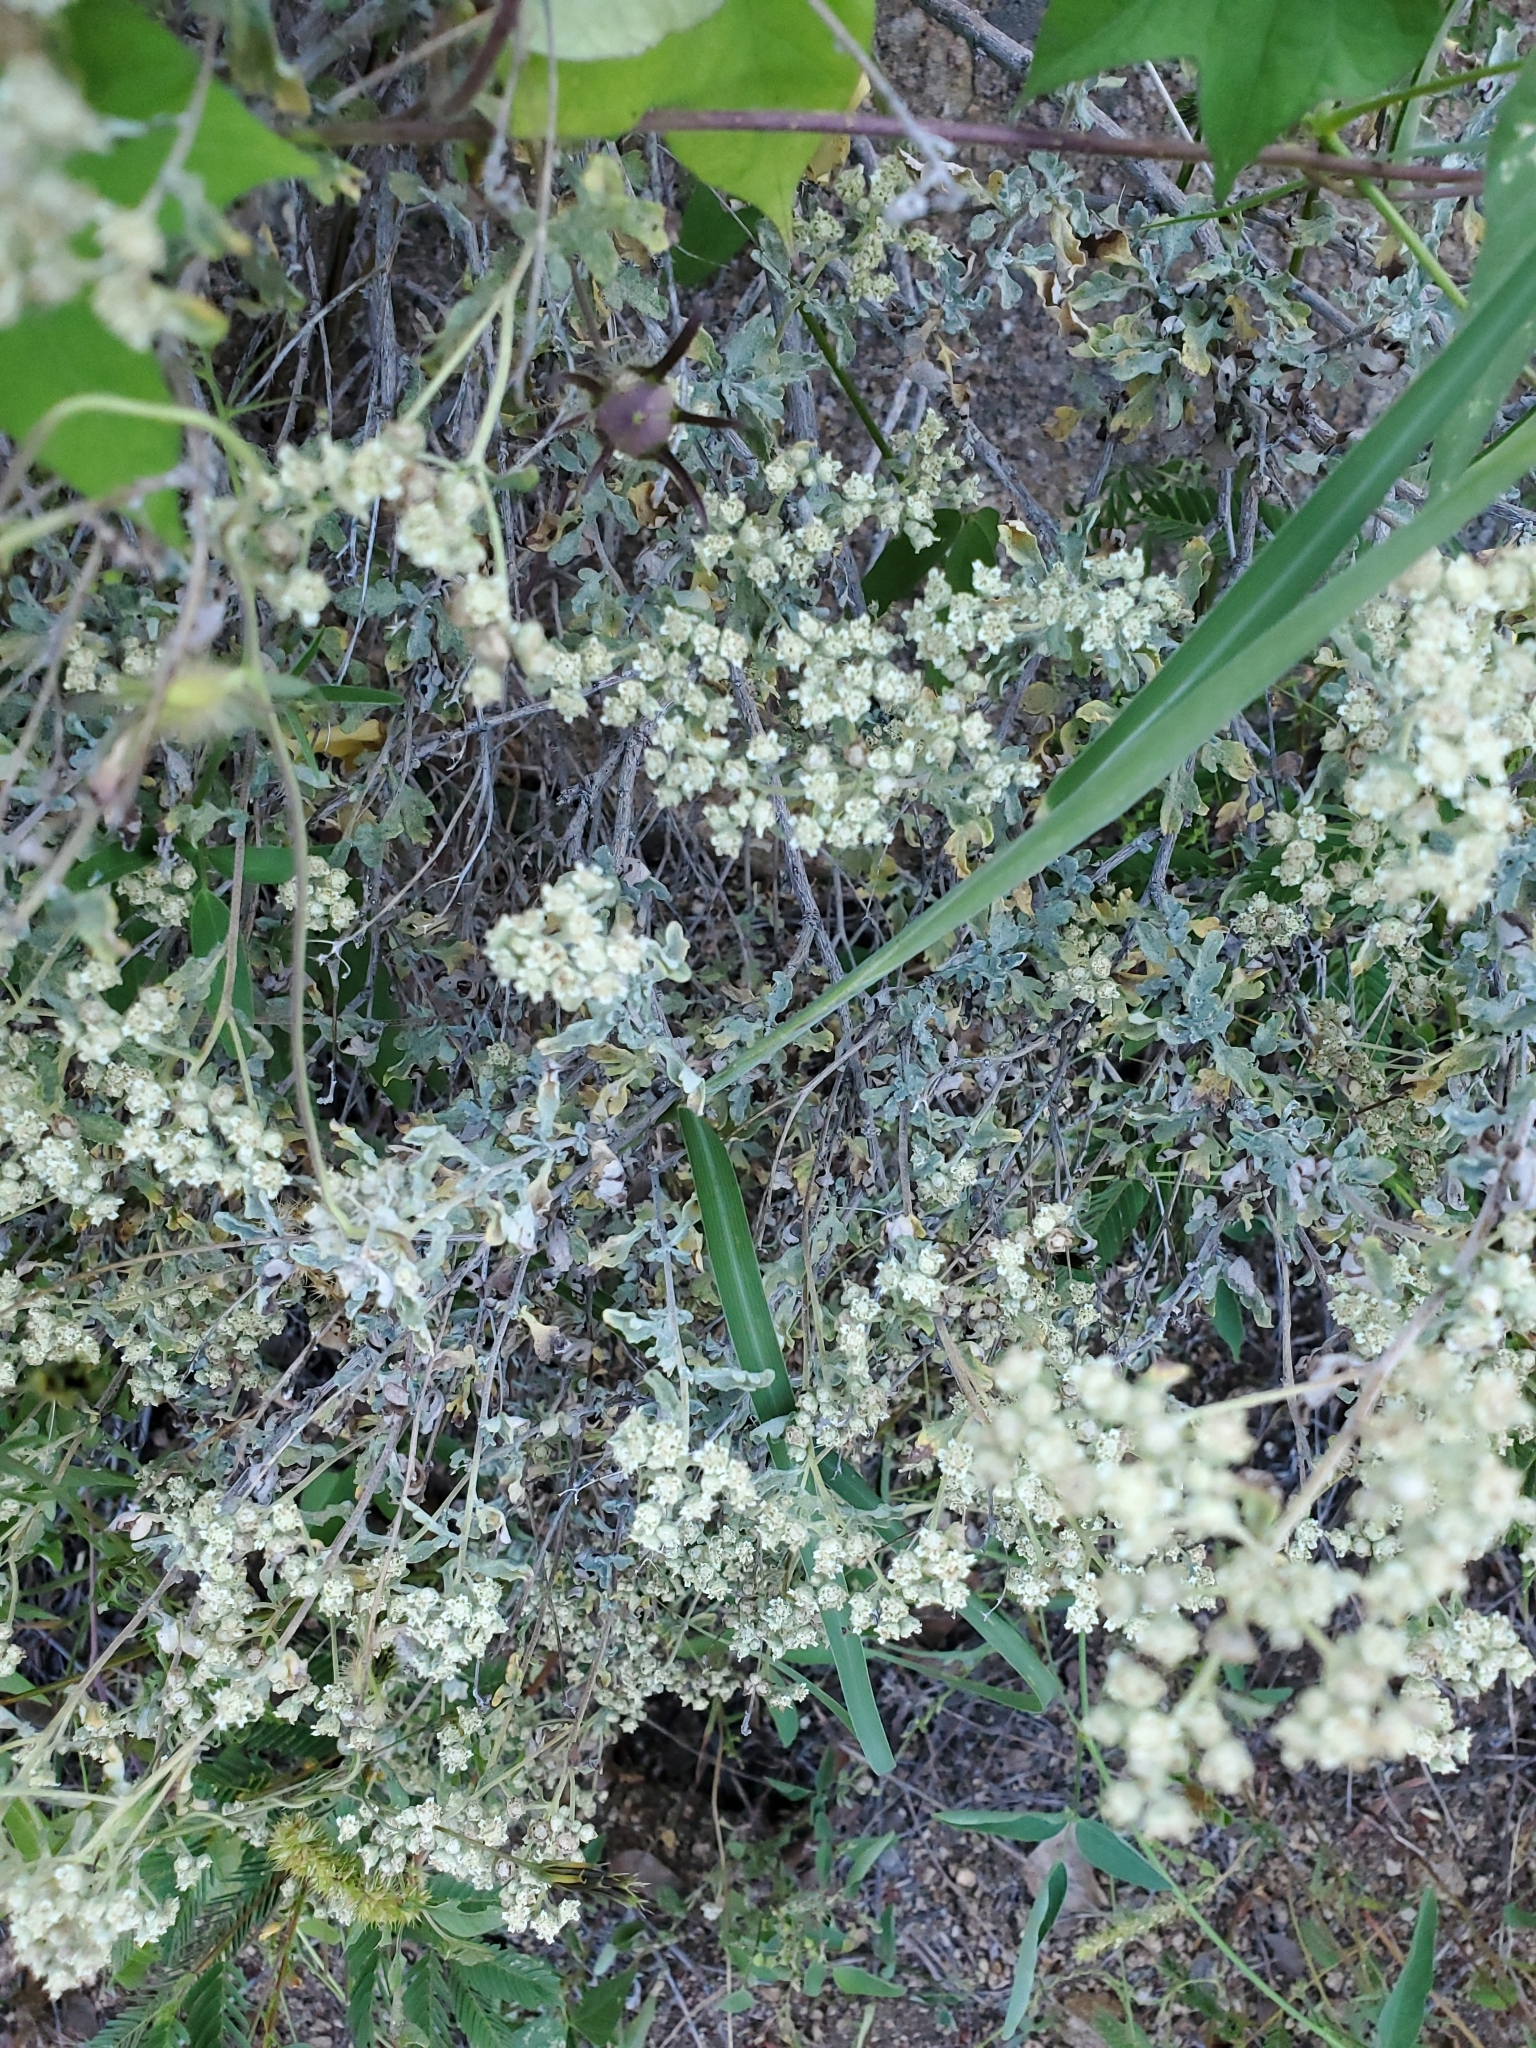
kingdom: Plantae
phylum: Tracheophyta
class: Magnoliopsida
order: Asterales
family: Asteraceae
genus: Parthenium
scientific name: Parthenium incanum
